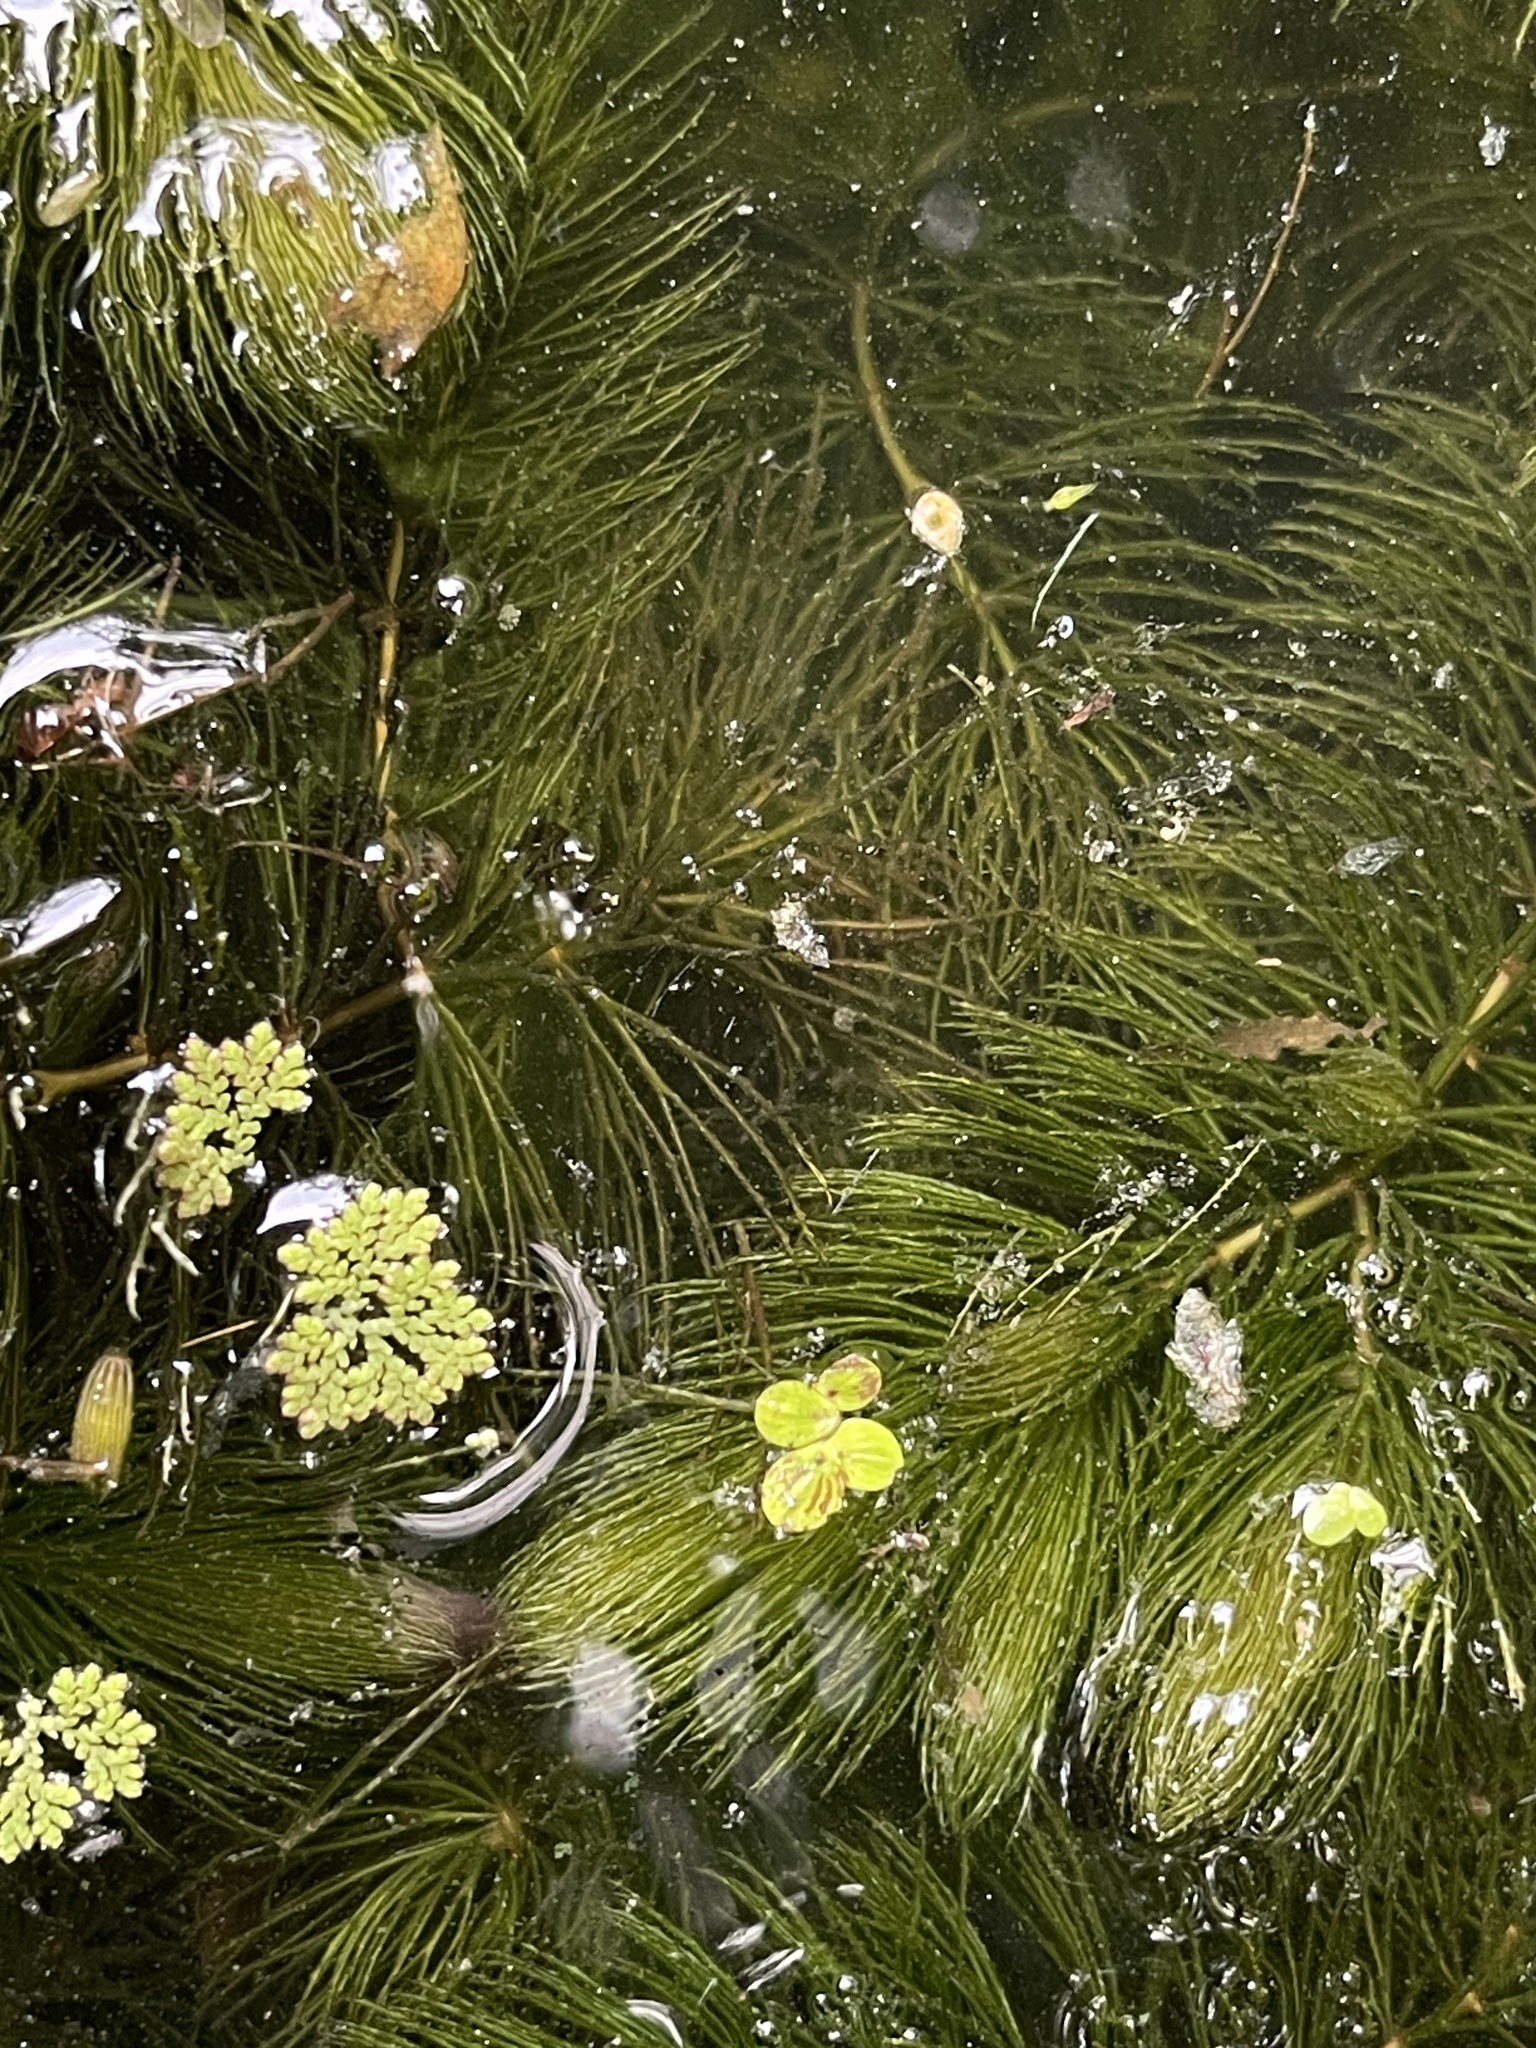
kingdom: Plantae
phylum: Tracheophyta
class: Polypodiopsida
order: Salviniales
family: Salviniaceae
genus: Azolla
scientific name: Azolla caroliniana
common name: Carolina mosquitofern
